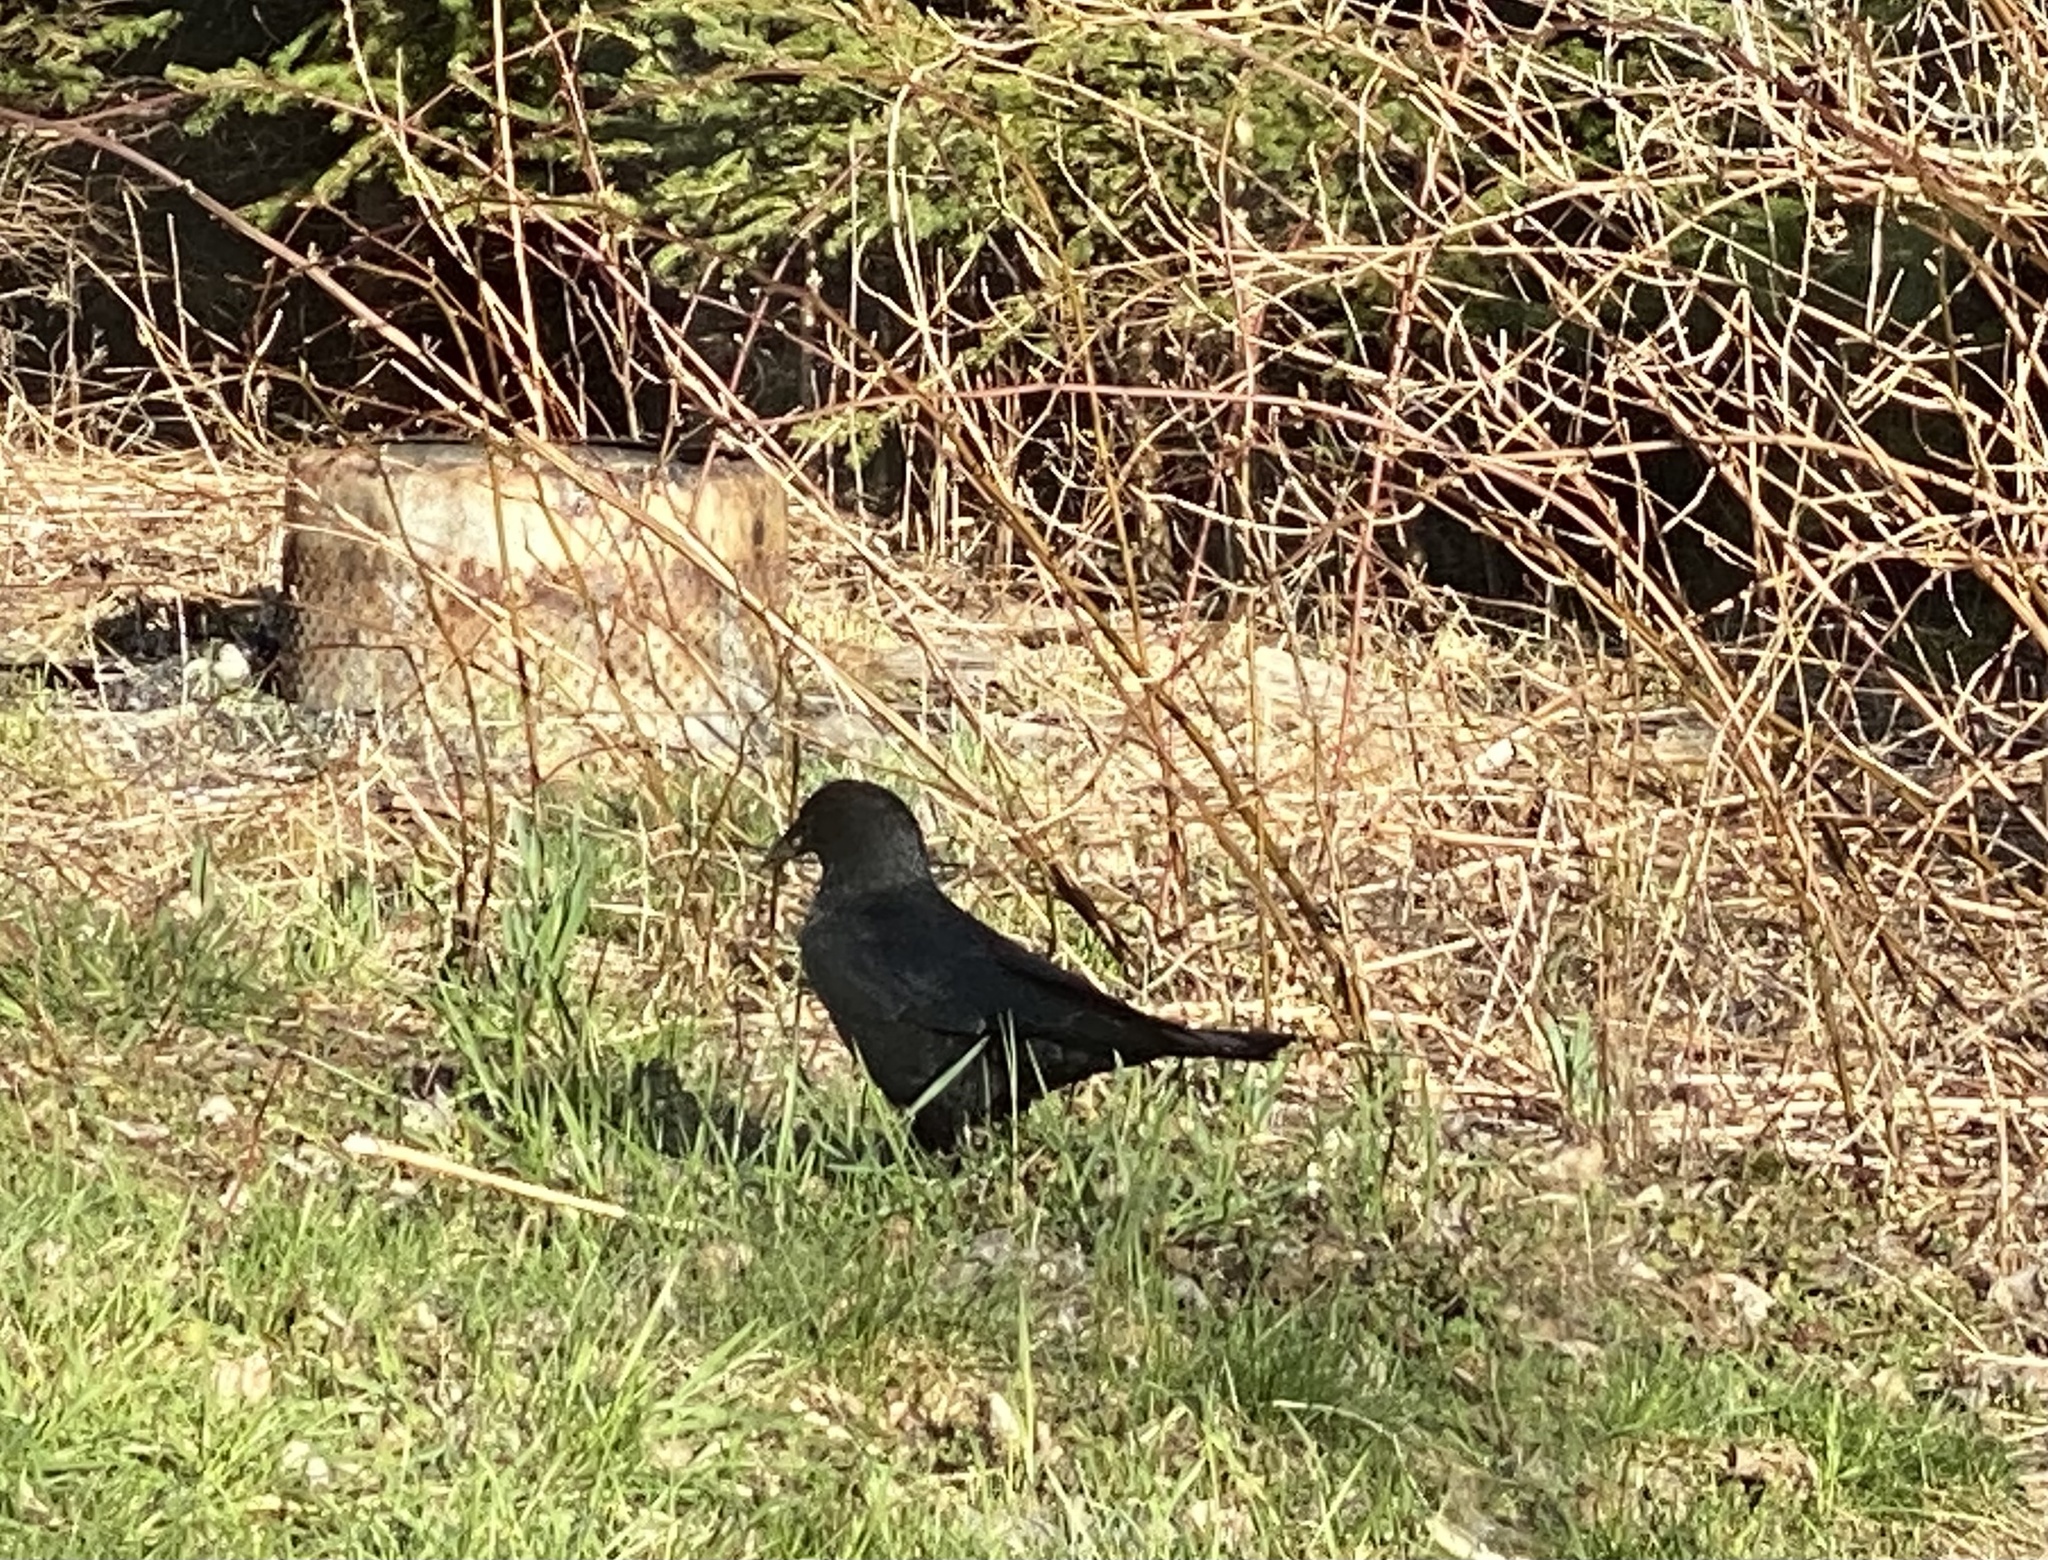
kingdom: Animalia
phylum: Chordata
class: Aves
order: Passeriformes
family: Corvidae
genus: Corvus
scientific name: Corvus brachyrhynchos
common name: American crow
